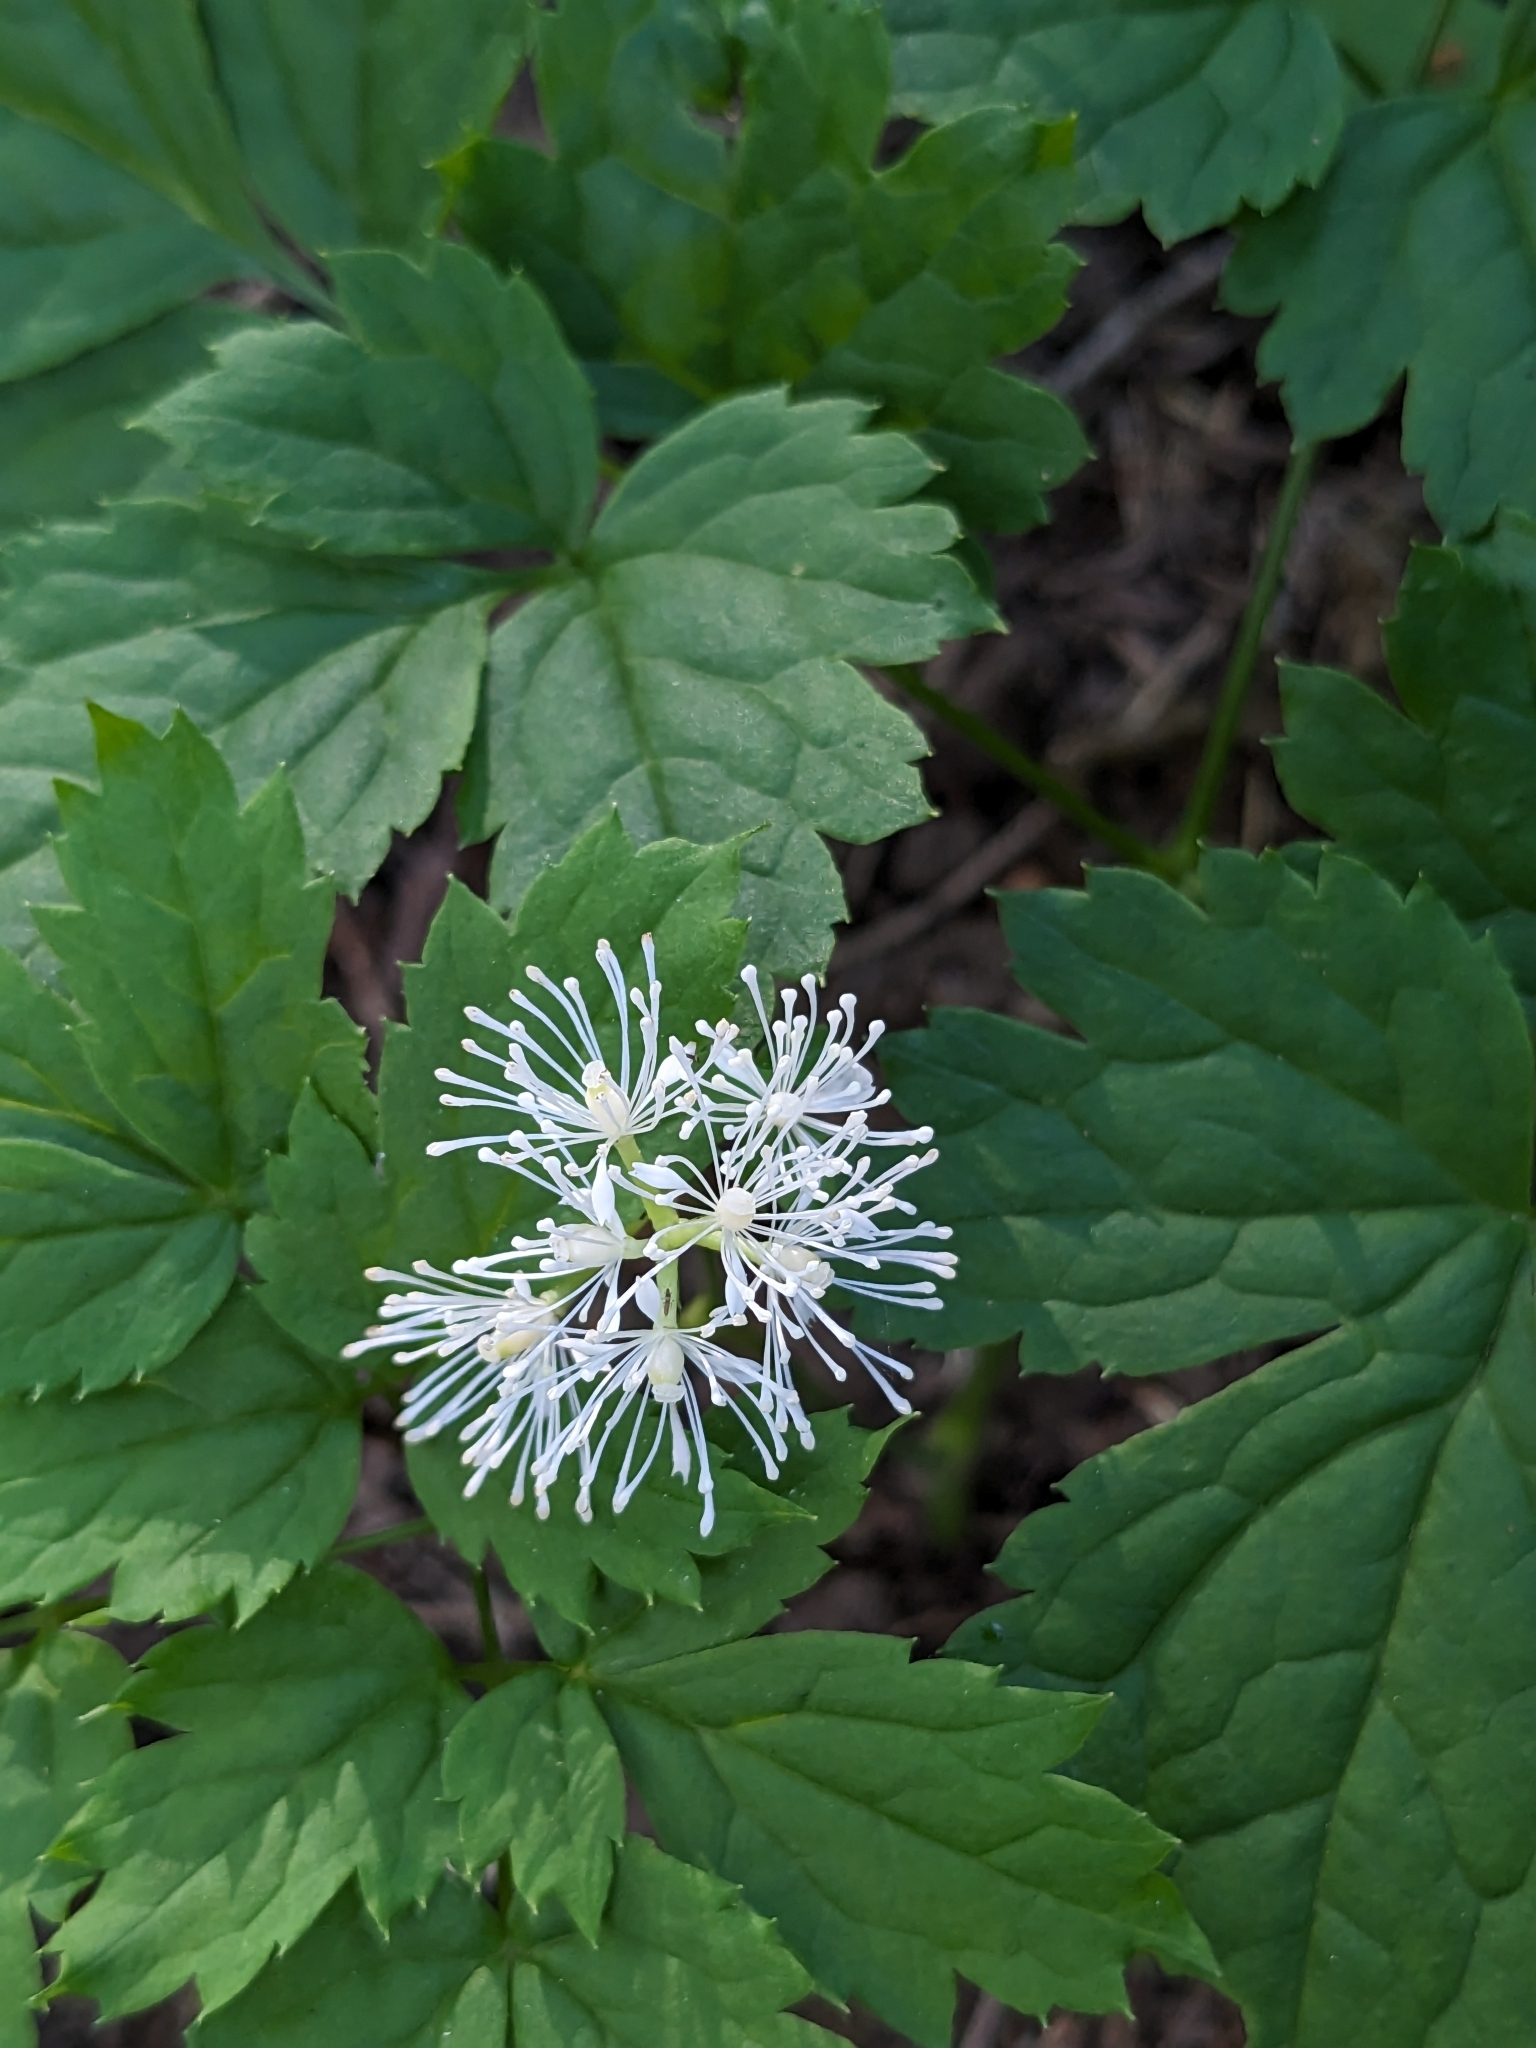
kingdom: Plantae
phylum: Tracheophyta
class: Magnoliopsida
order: Ranunculales
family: Ranunculaceae
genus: Actaea
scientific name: Actaea spicata
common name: Baneberry
